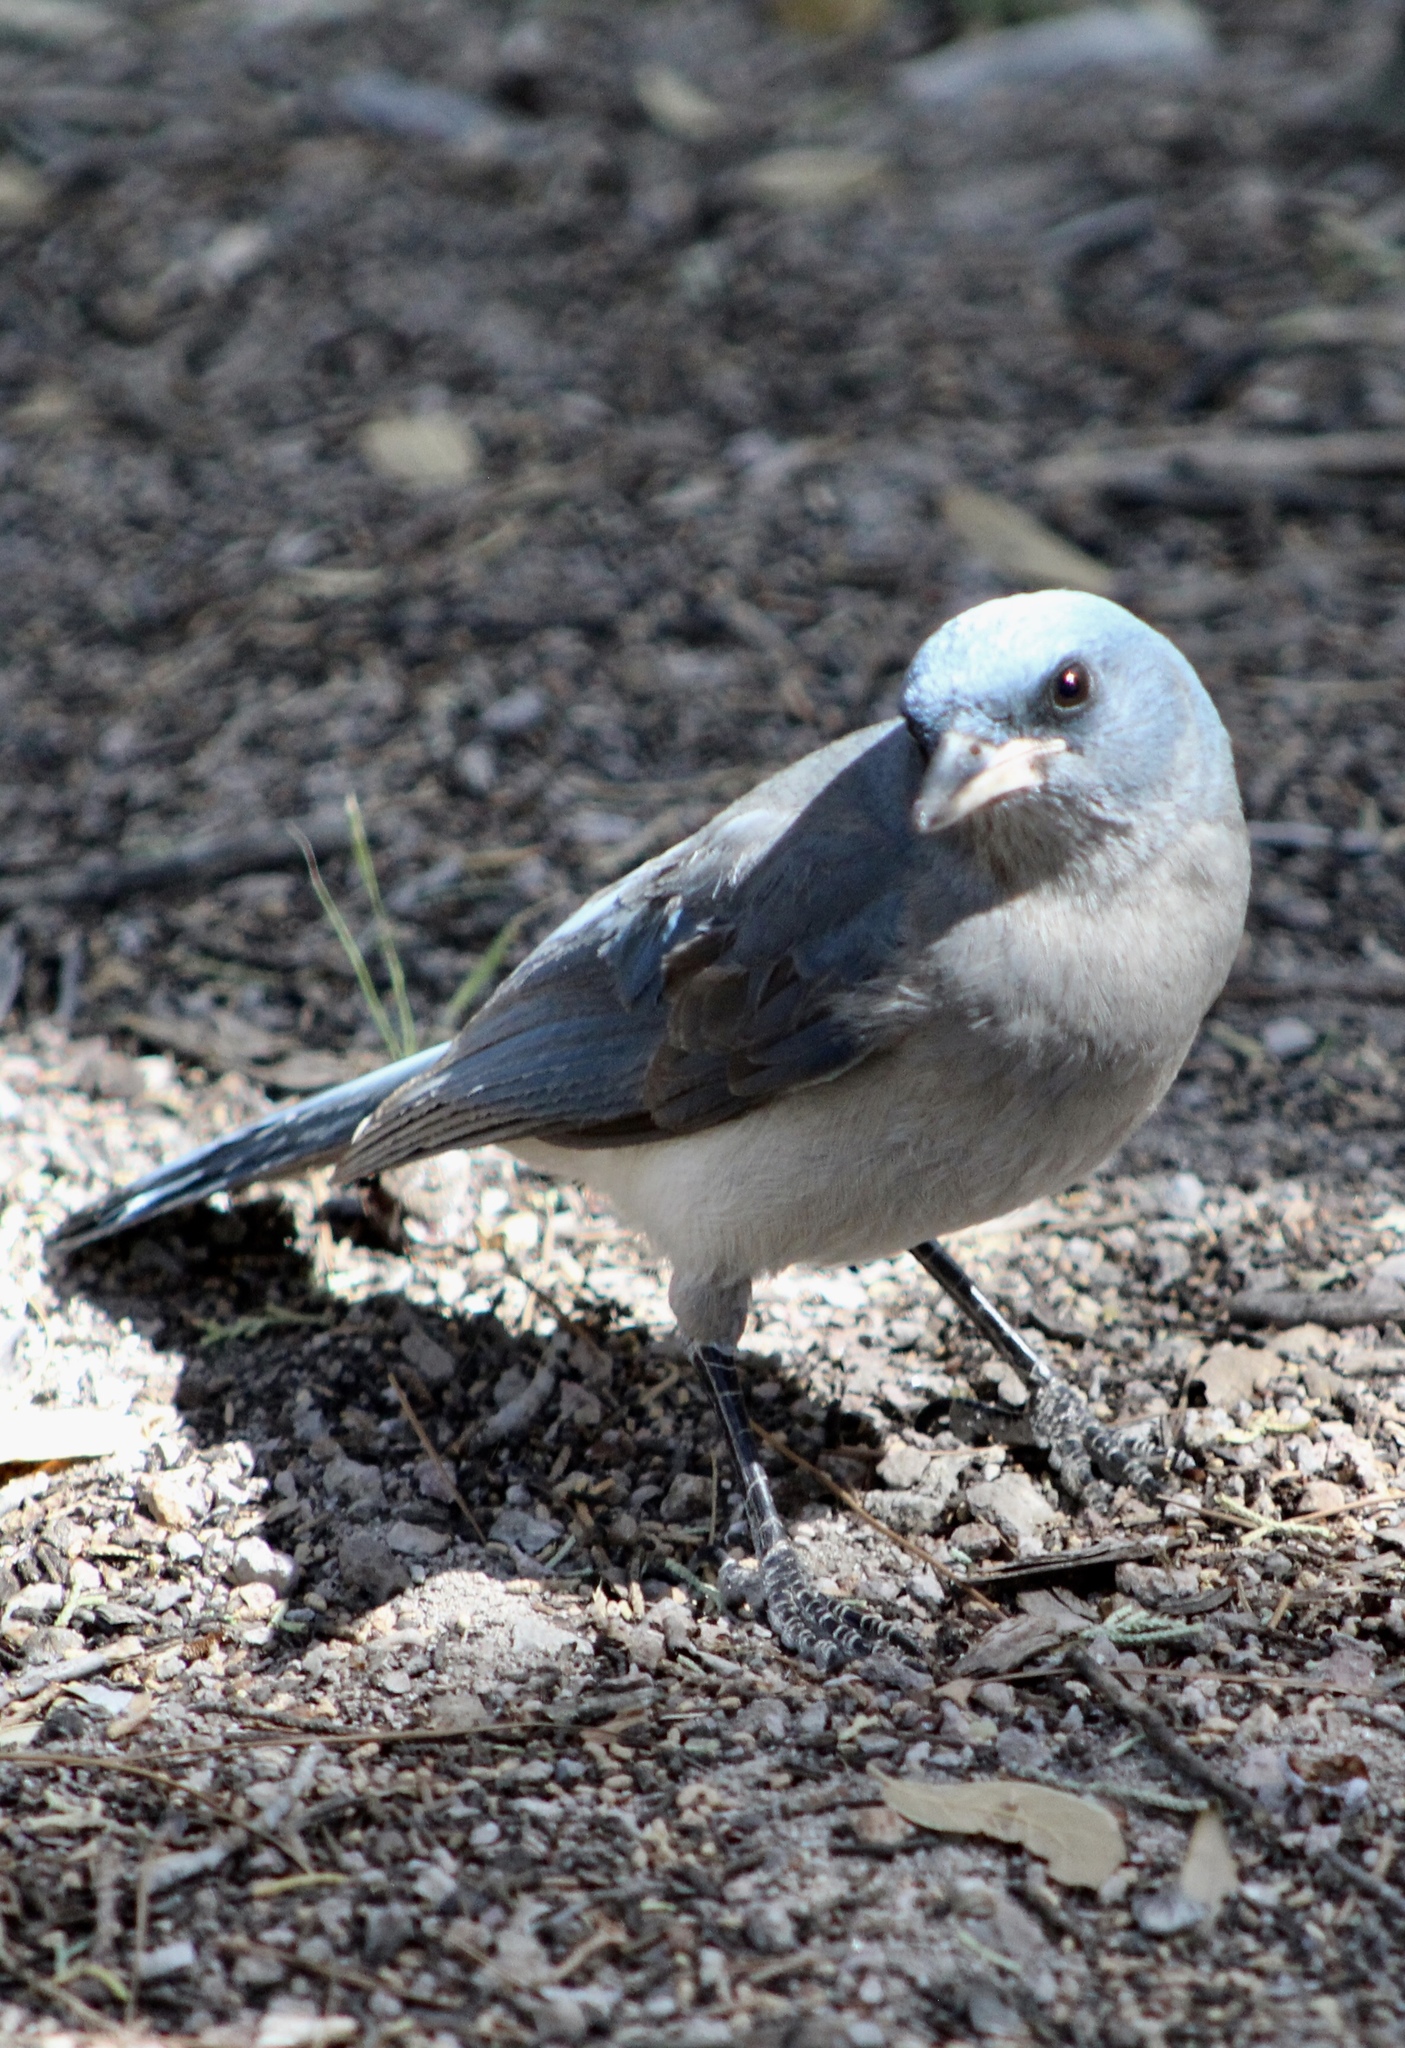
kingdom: Animalia
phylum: Chordata
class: Aves
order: Passeriformes
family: Corvidae
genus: Aphelocoma
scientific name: Aphelocoma wollweberi
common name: Mexican jay
